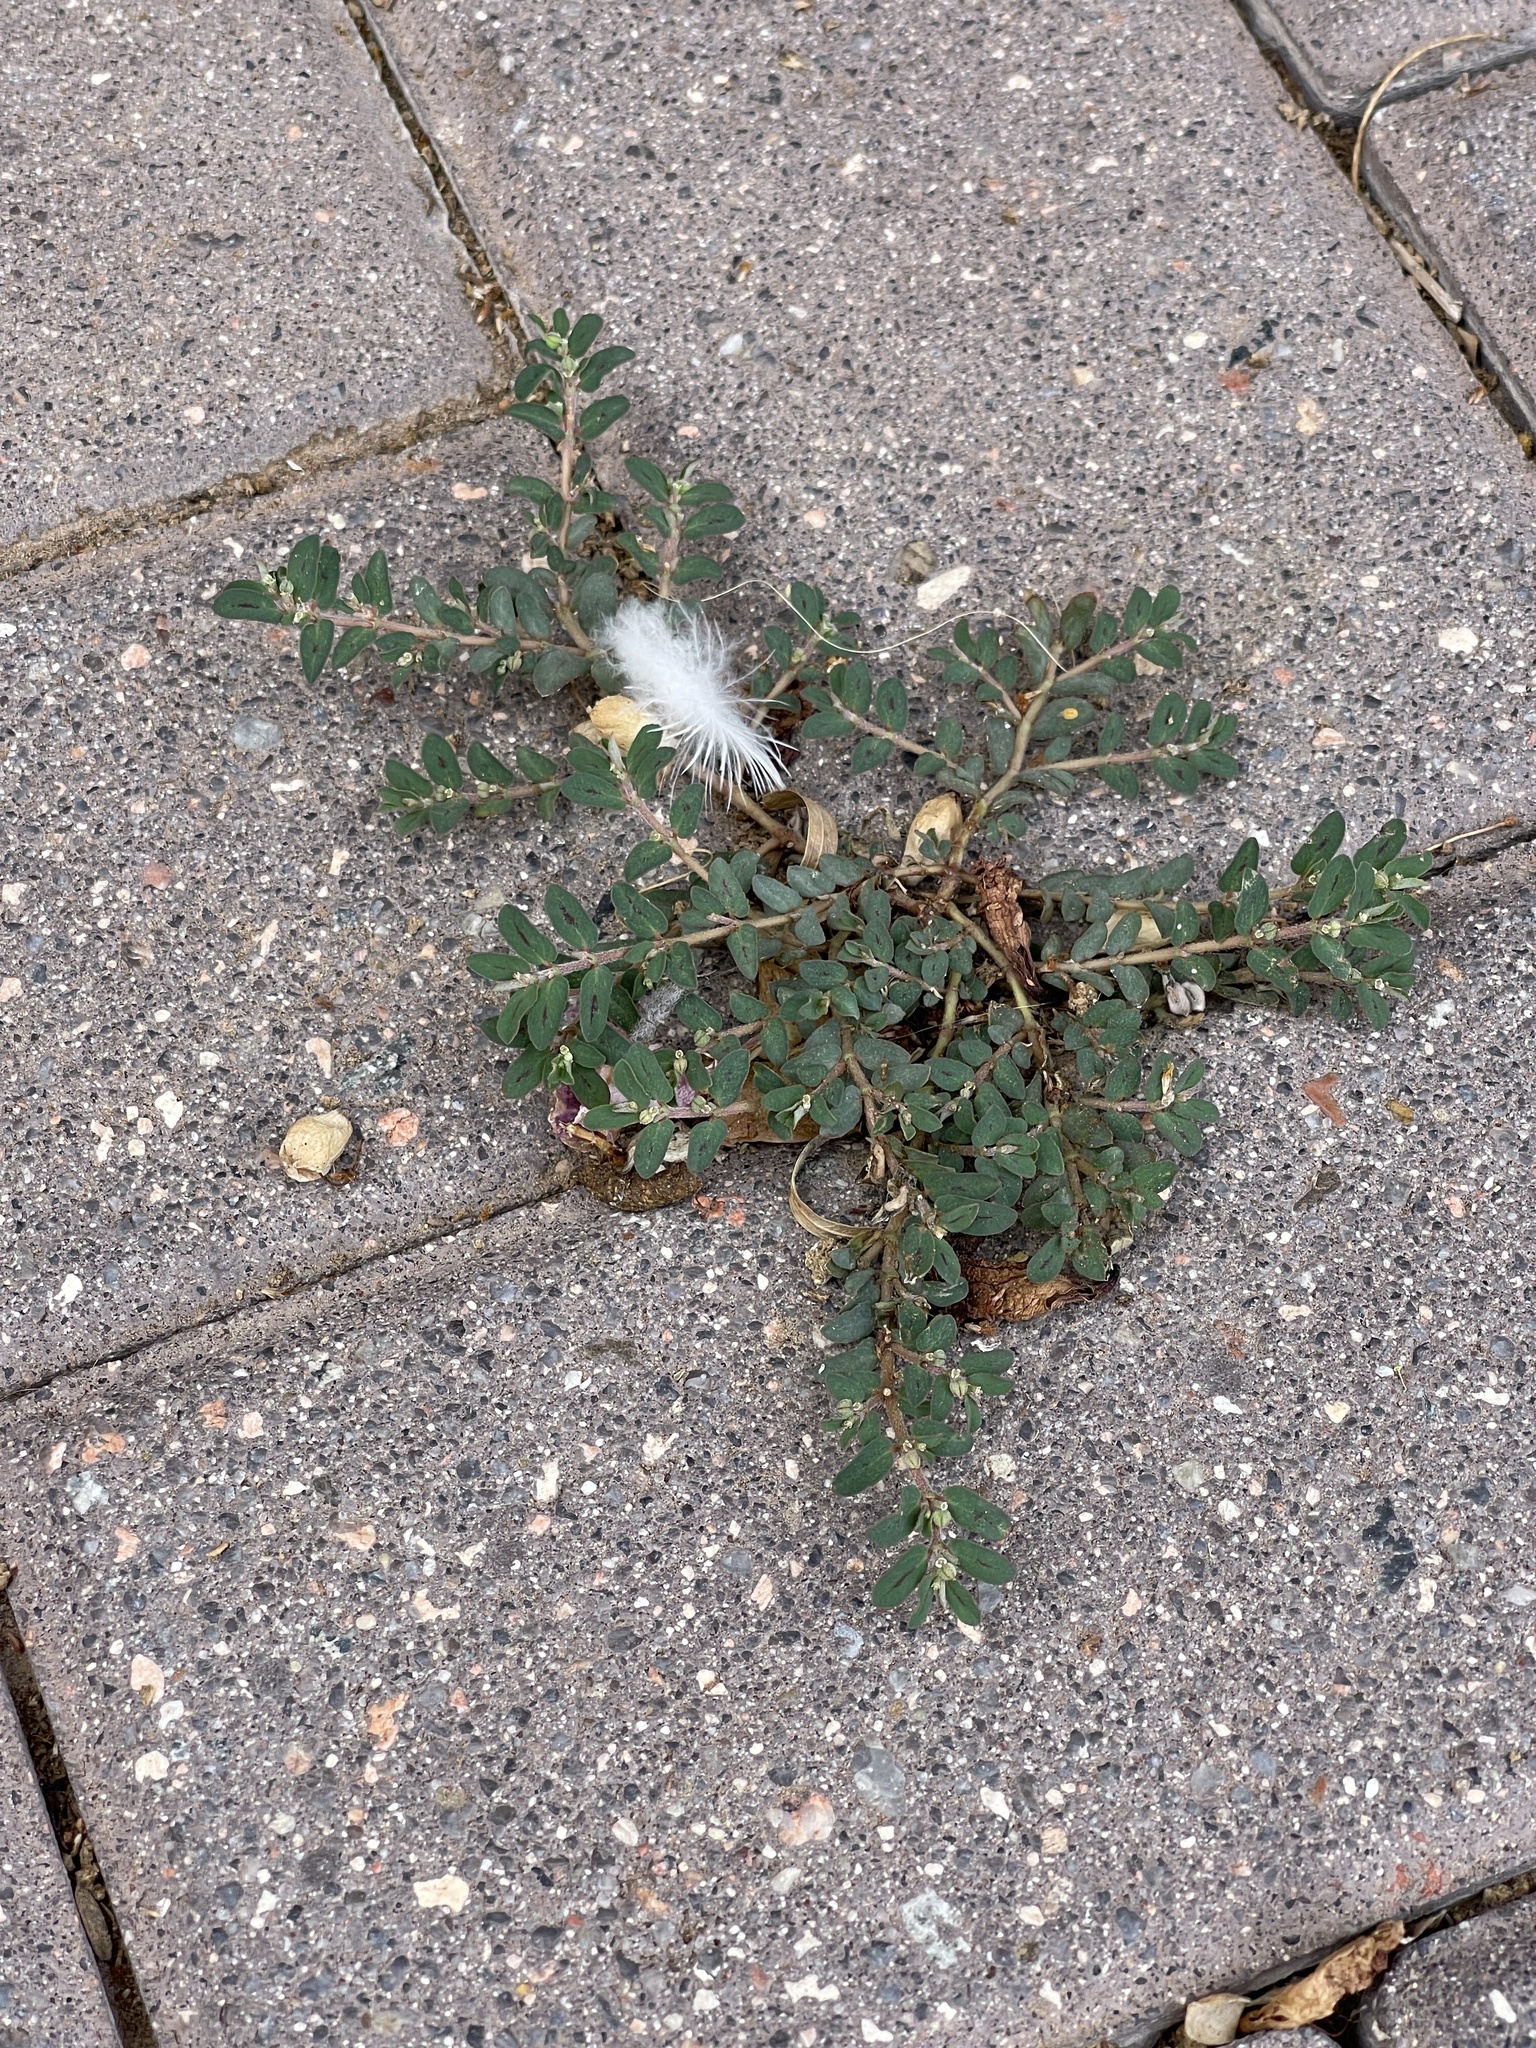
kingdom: Plantae
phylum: Tracheophyta
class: Magnoliopsida
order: Malpighiales
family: Euphorbiaceae
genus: Euphorbia
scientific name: Euphorbia maculata
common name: Spotted spurge
